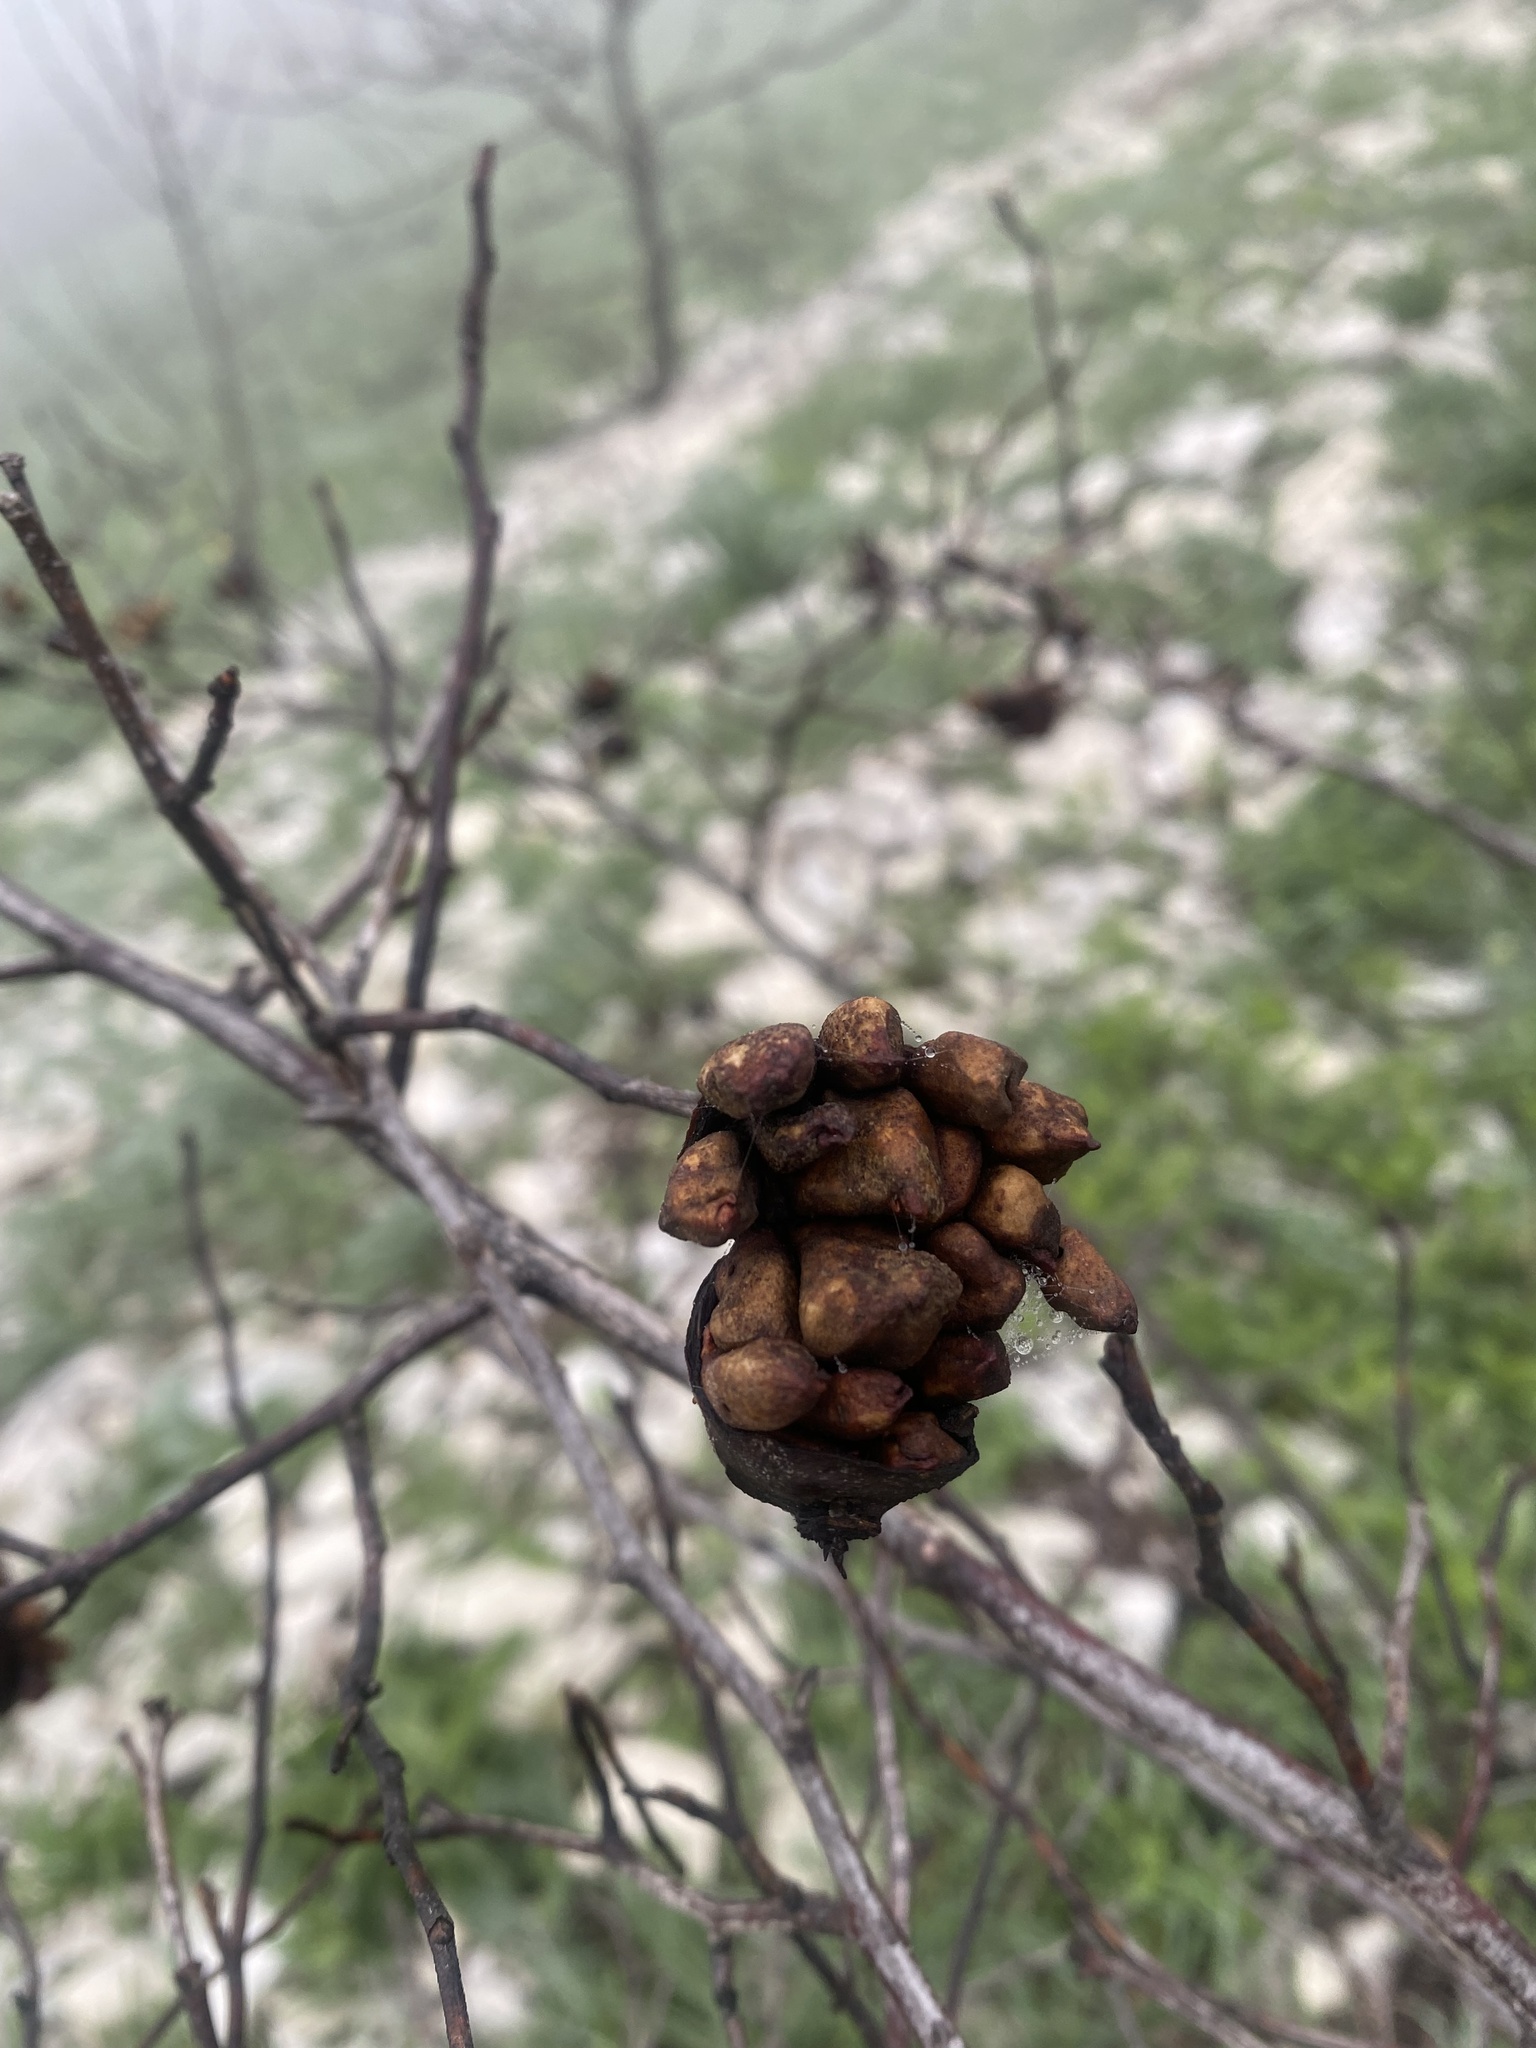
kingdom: Animalia
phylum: Arthropoda
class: Insecta
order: Hymenoptera
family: Cynipidae
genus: Diplolepis
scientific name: Diplolepis fructuum
